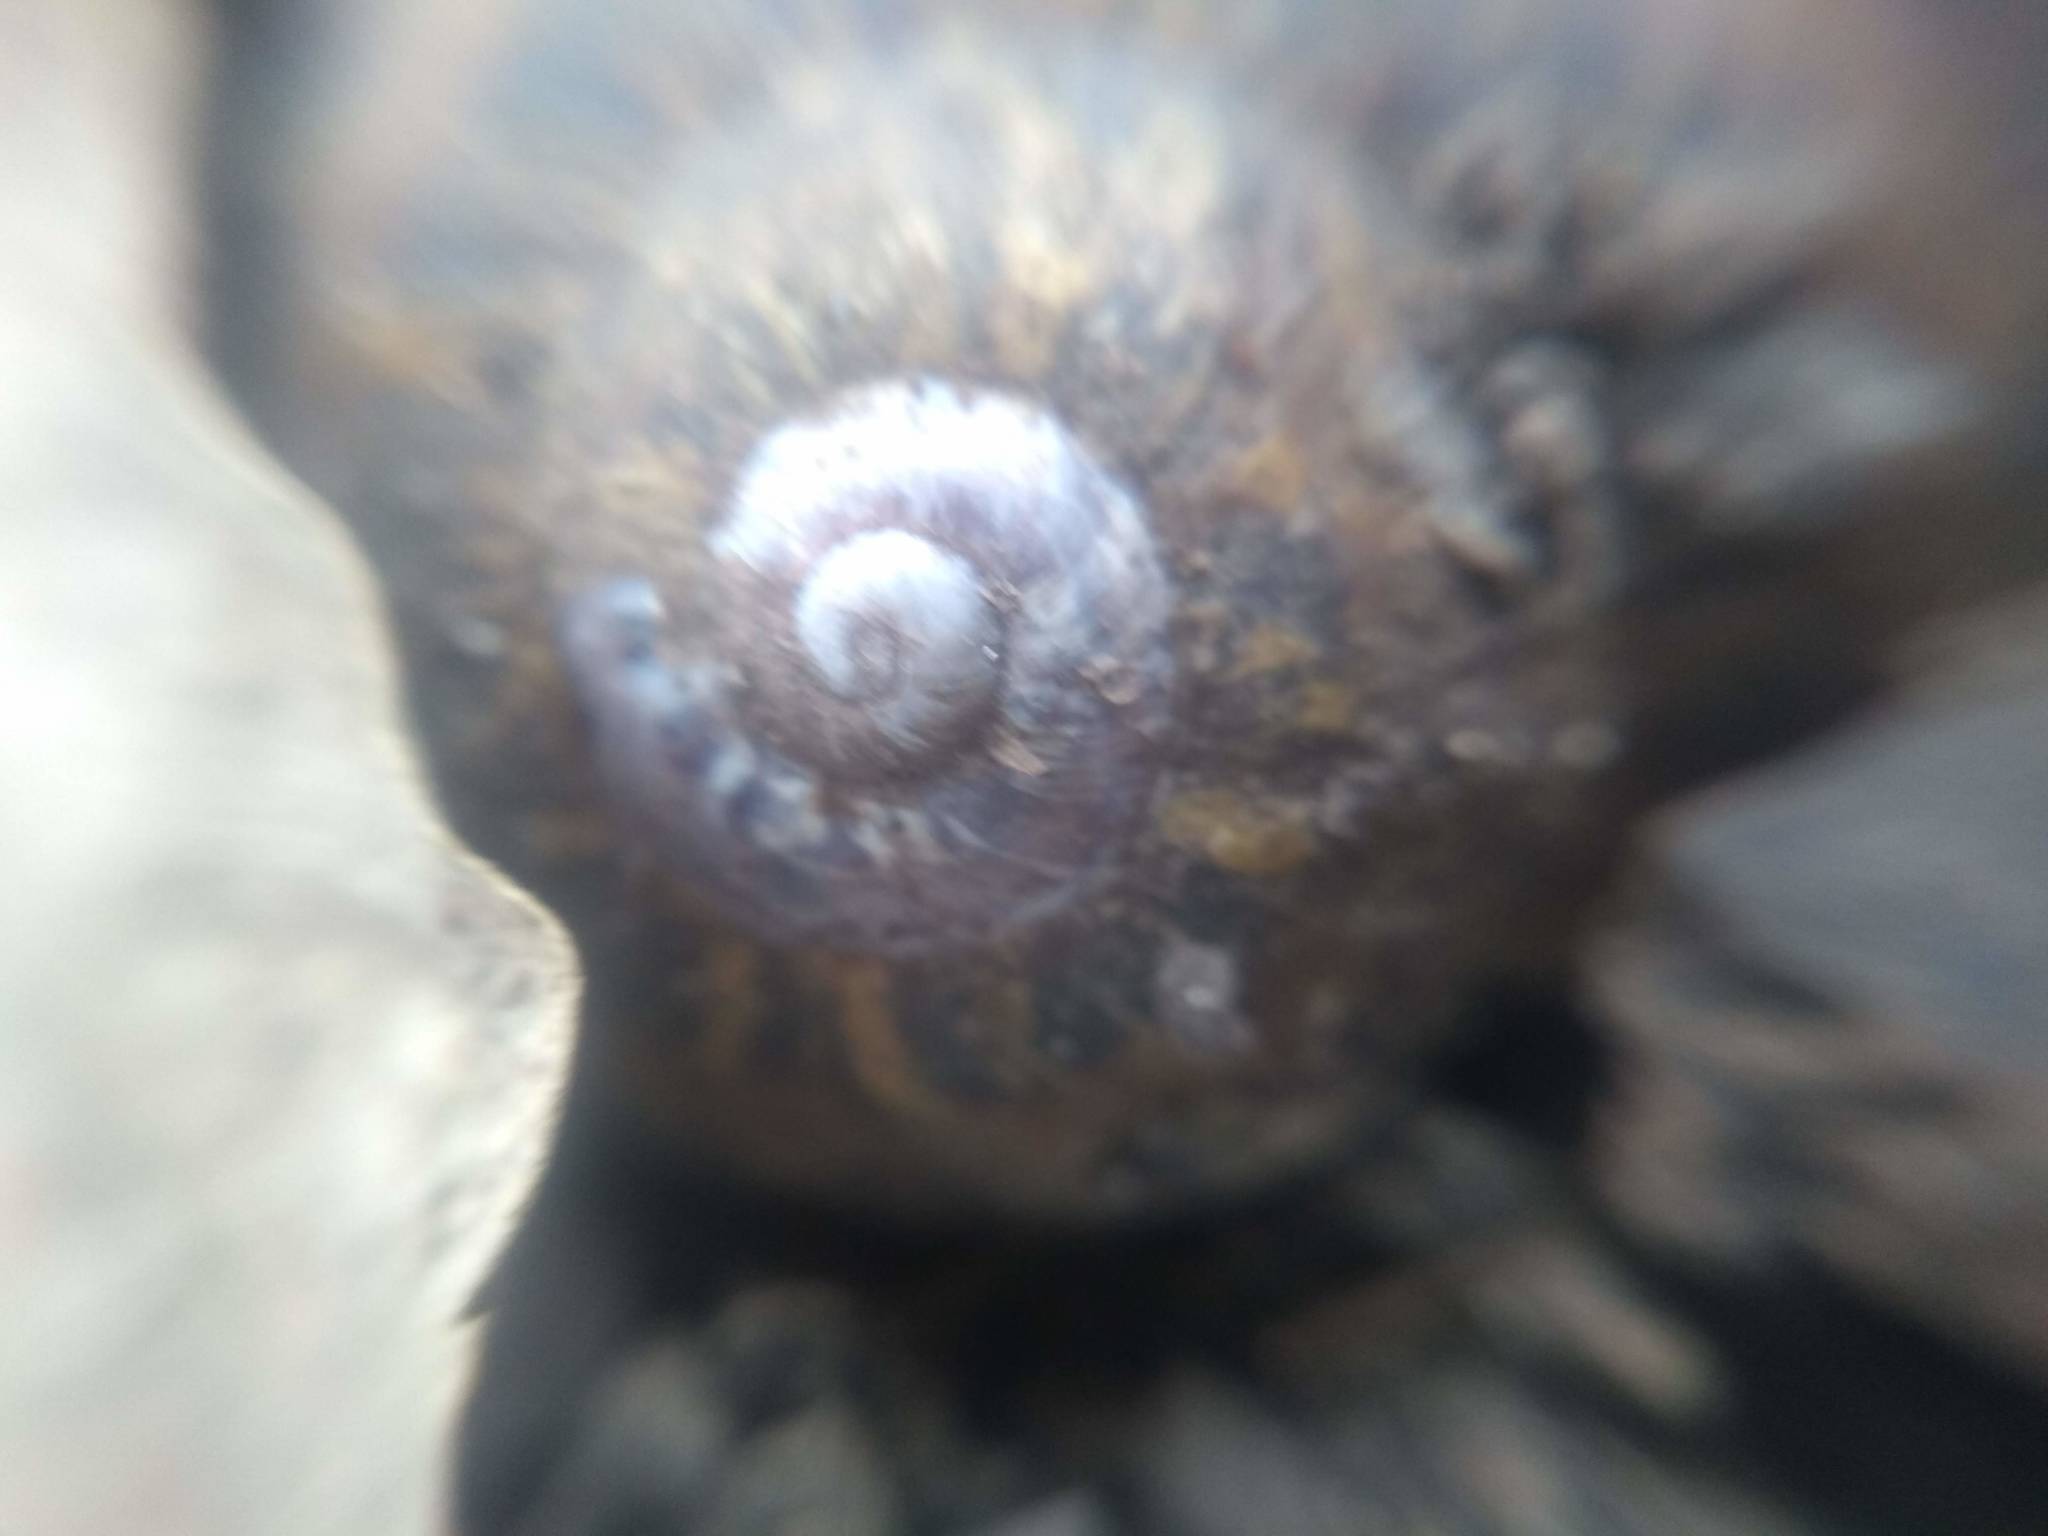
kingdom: Animalia
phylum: Mollusca
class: Gastropoda
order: Stylommatophora
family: Helicidae
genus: Cornu
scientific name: Cornu aspersum
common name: Brown garden snail
